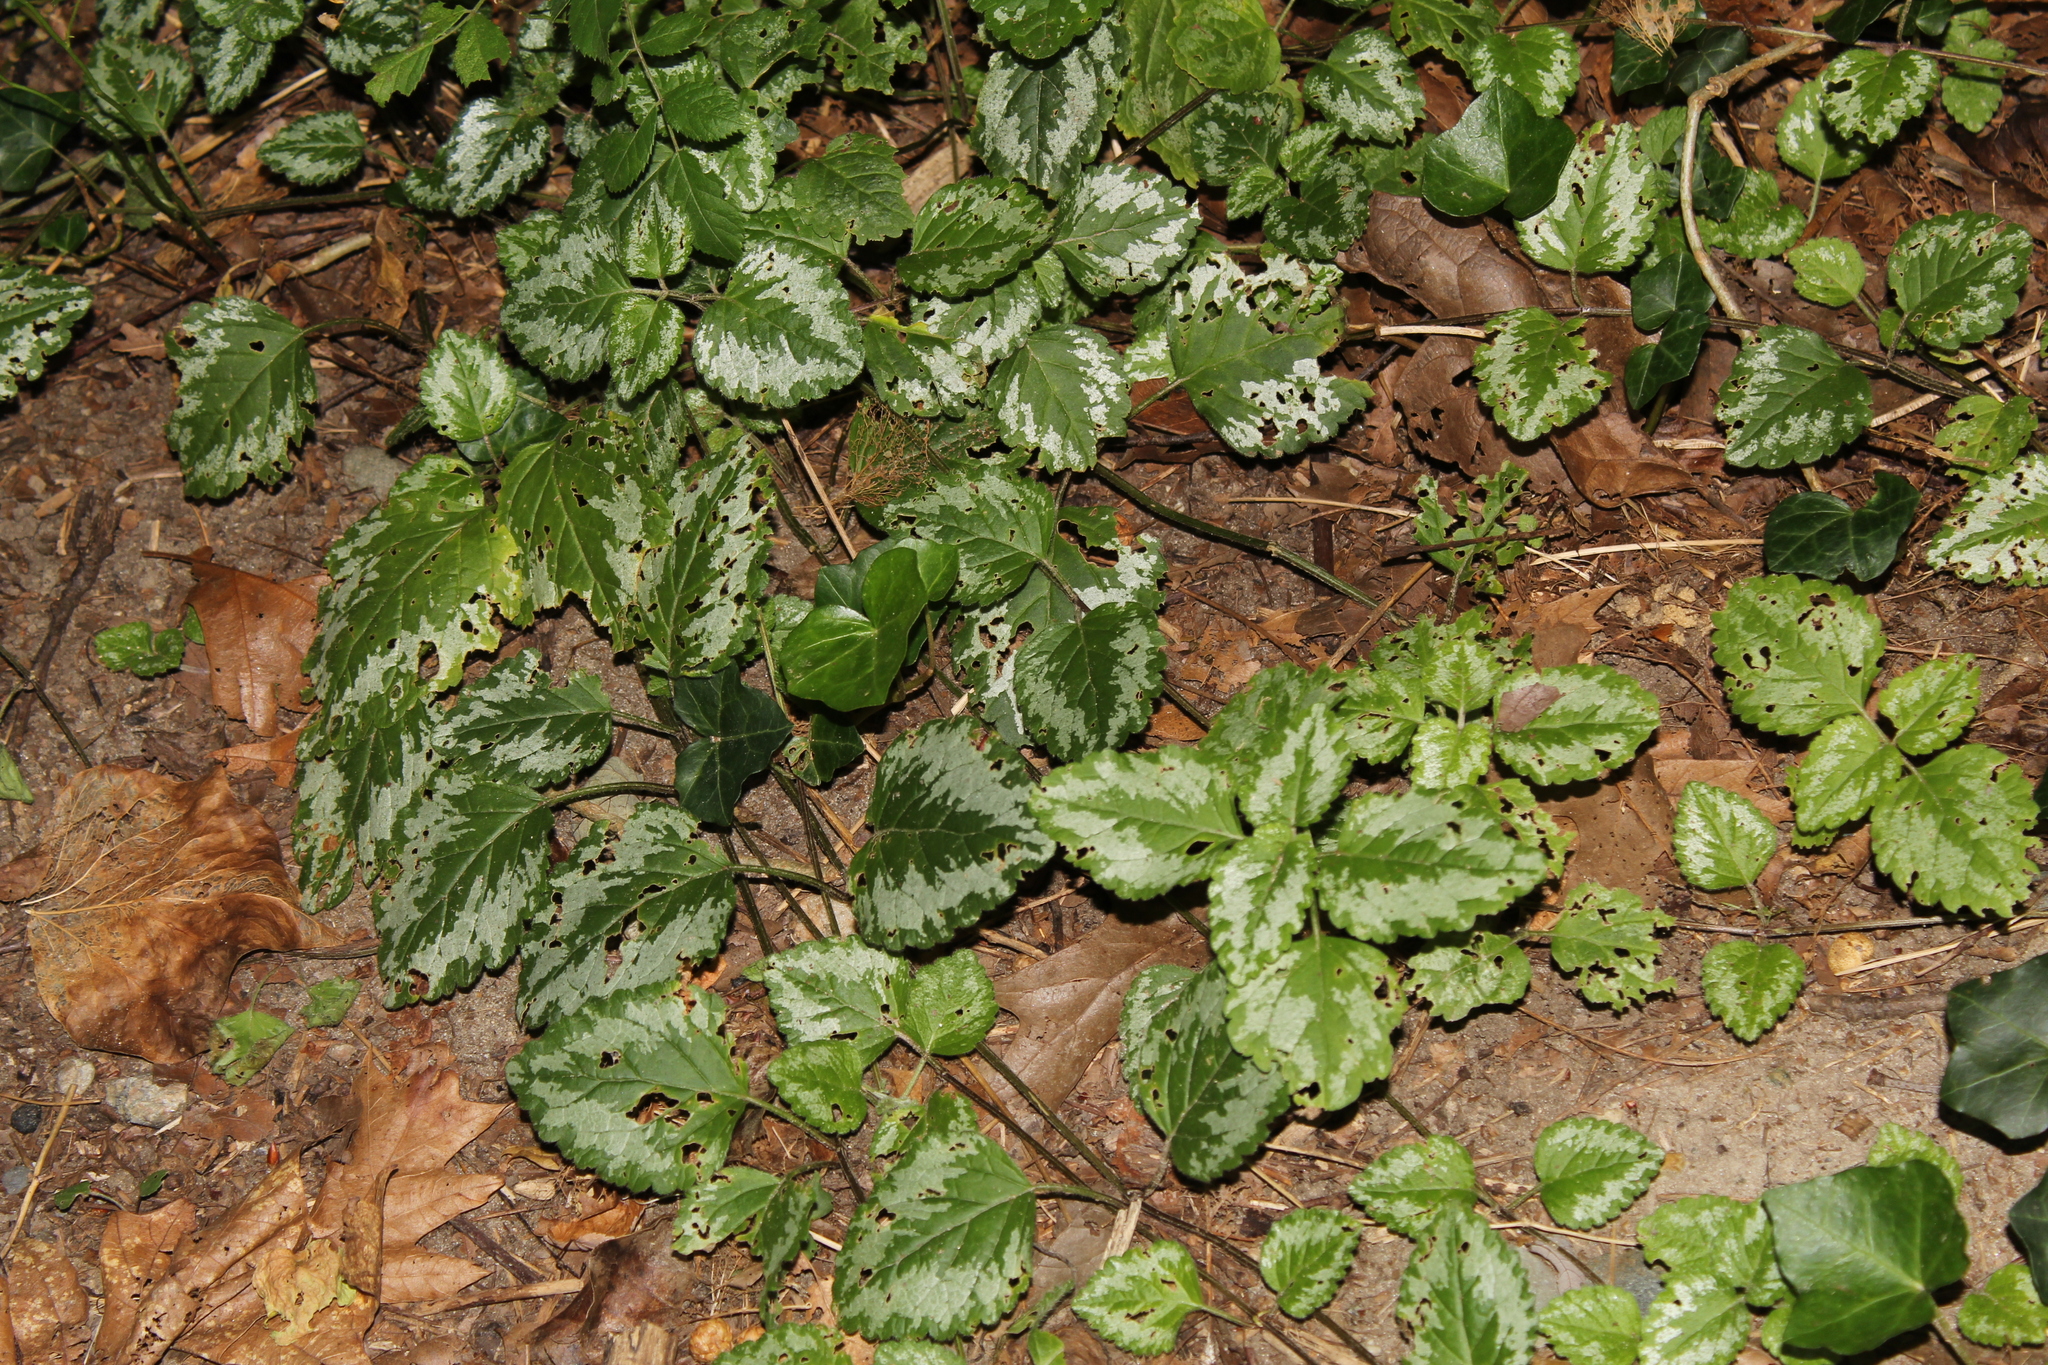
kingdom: Plantae
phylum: Tracheophyta
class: Magnoliopsida
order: Lamiales
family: Lamiaceae
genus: Lamium
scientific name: Lamium galeobdolon
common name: Yellow archangel
